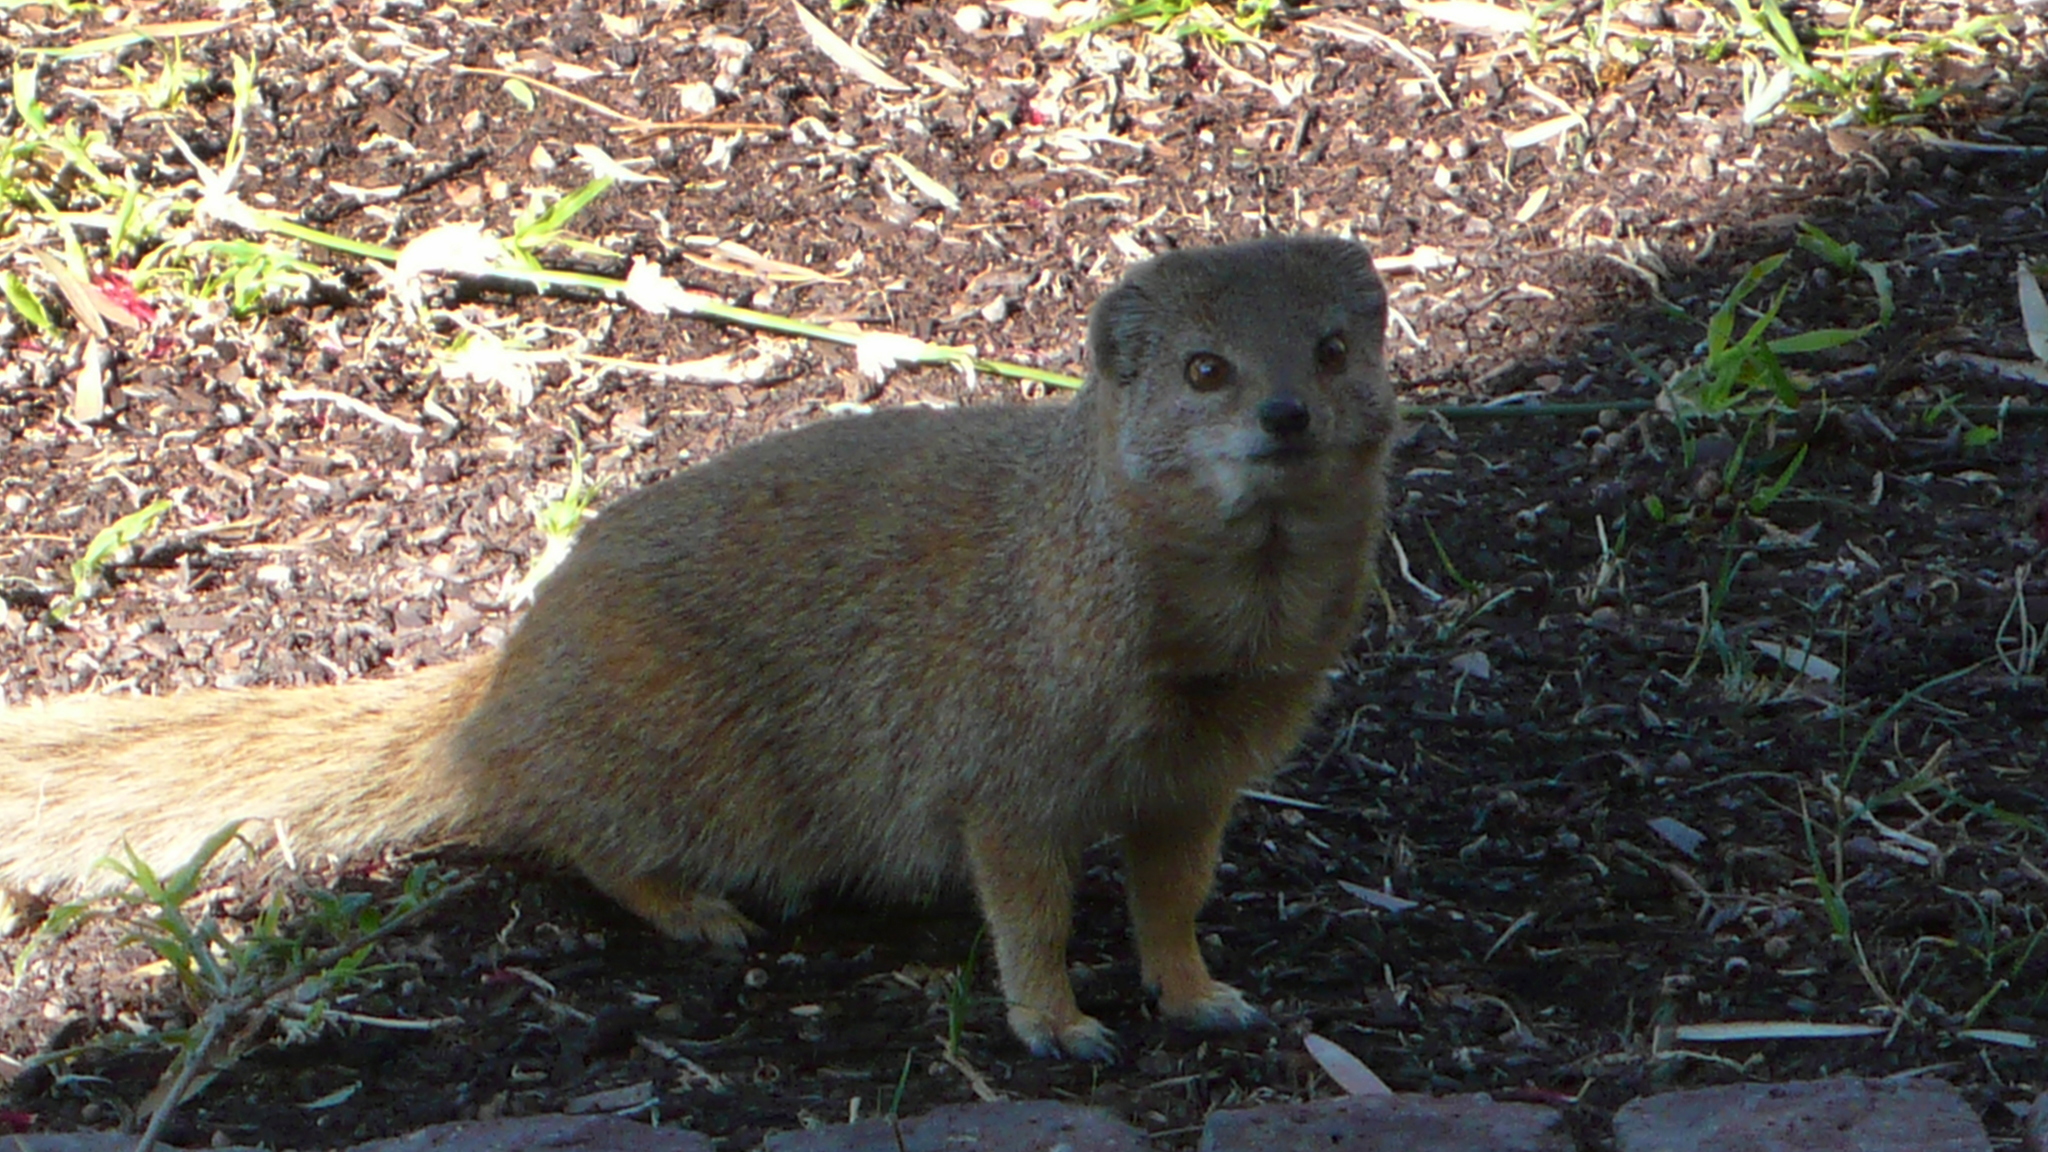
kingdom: Animalia
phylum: Chordata
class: Mammalia
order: Carnivora
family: Herpestidae
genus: Cynictis
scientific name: Cynictis penicillata
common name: Yellow mongoose
